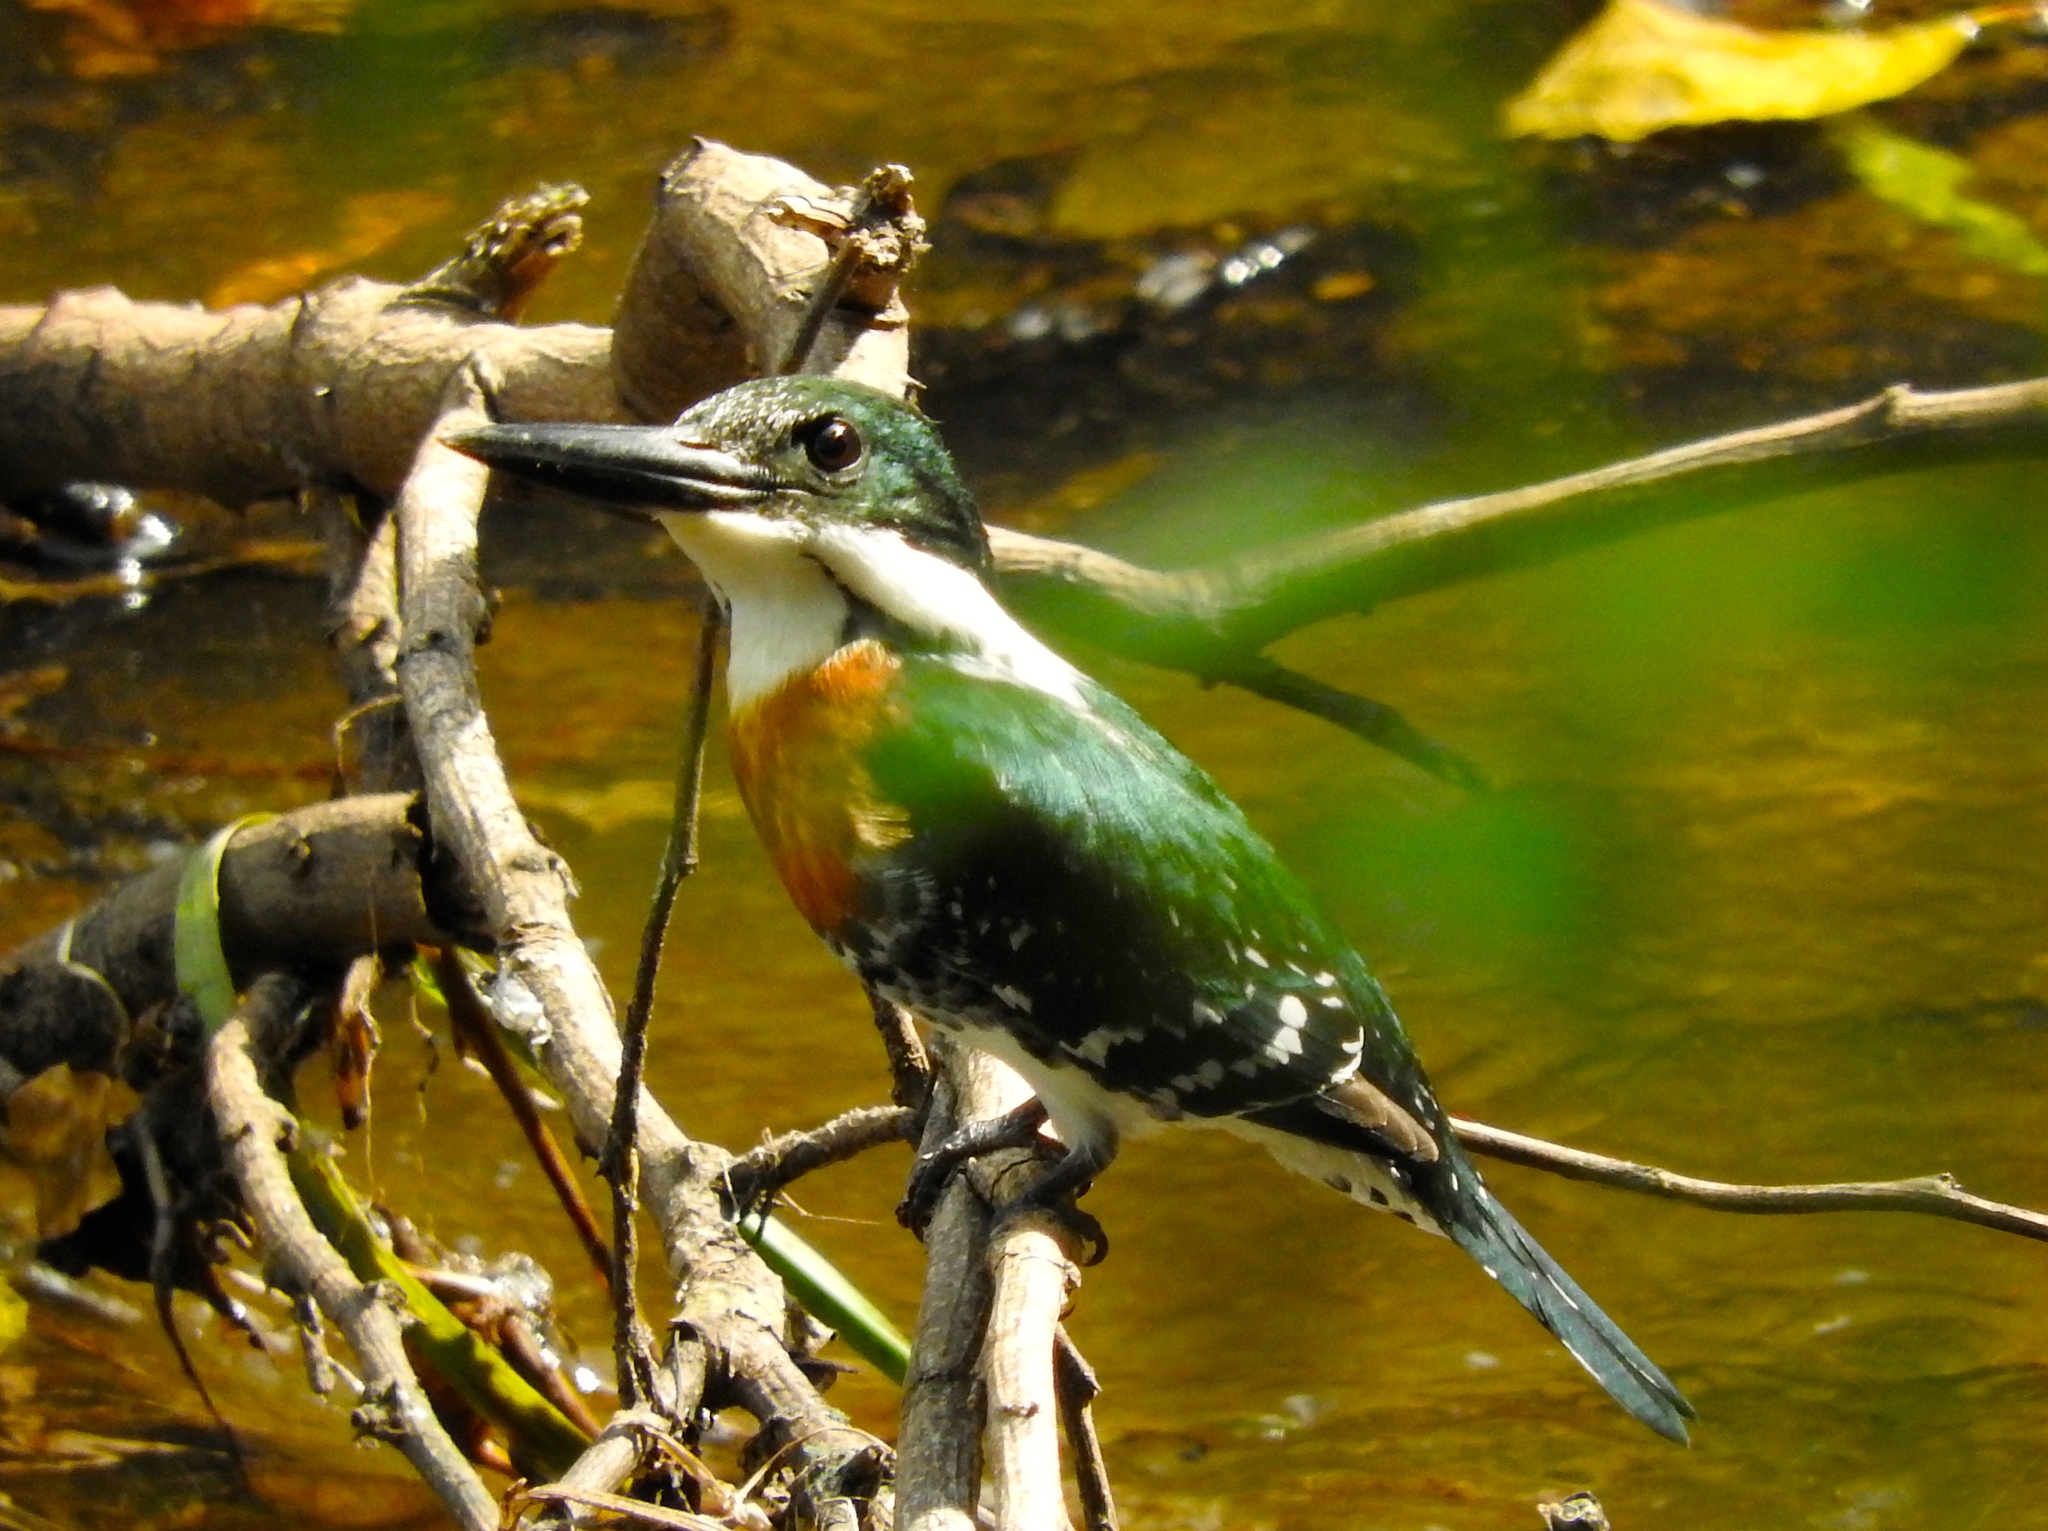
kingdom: Animalia
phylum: Chordata
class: Aves
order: Coraciiformes
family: Alcedinidae
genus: Chloroceryle
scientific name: Chloroceryle americana
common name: Green kingfisher
